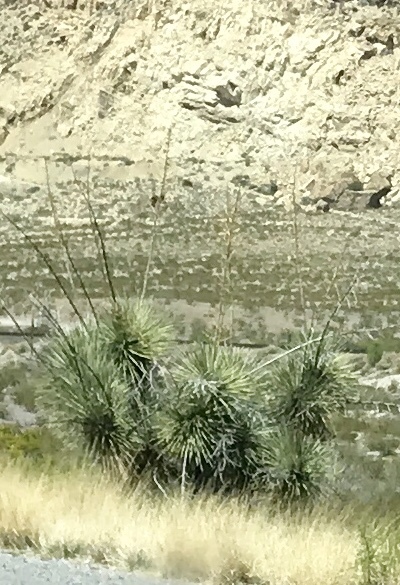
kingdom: Plantae
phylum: Tracheophyta
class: Liliopsida
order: Asparagales
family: Asparagaceae
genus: Yucca
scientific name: Yucca elata
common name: Palmella
